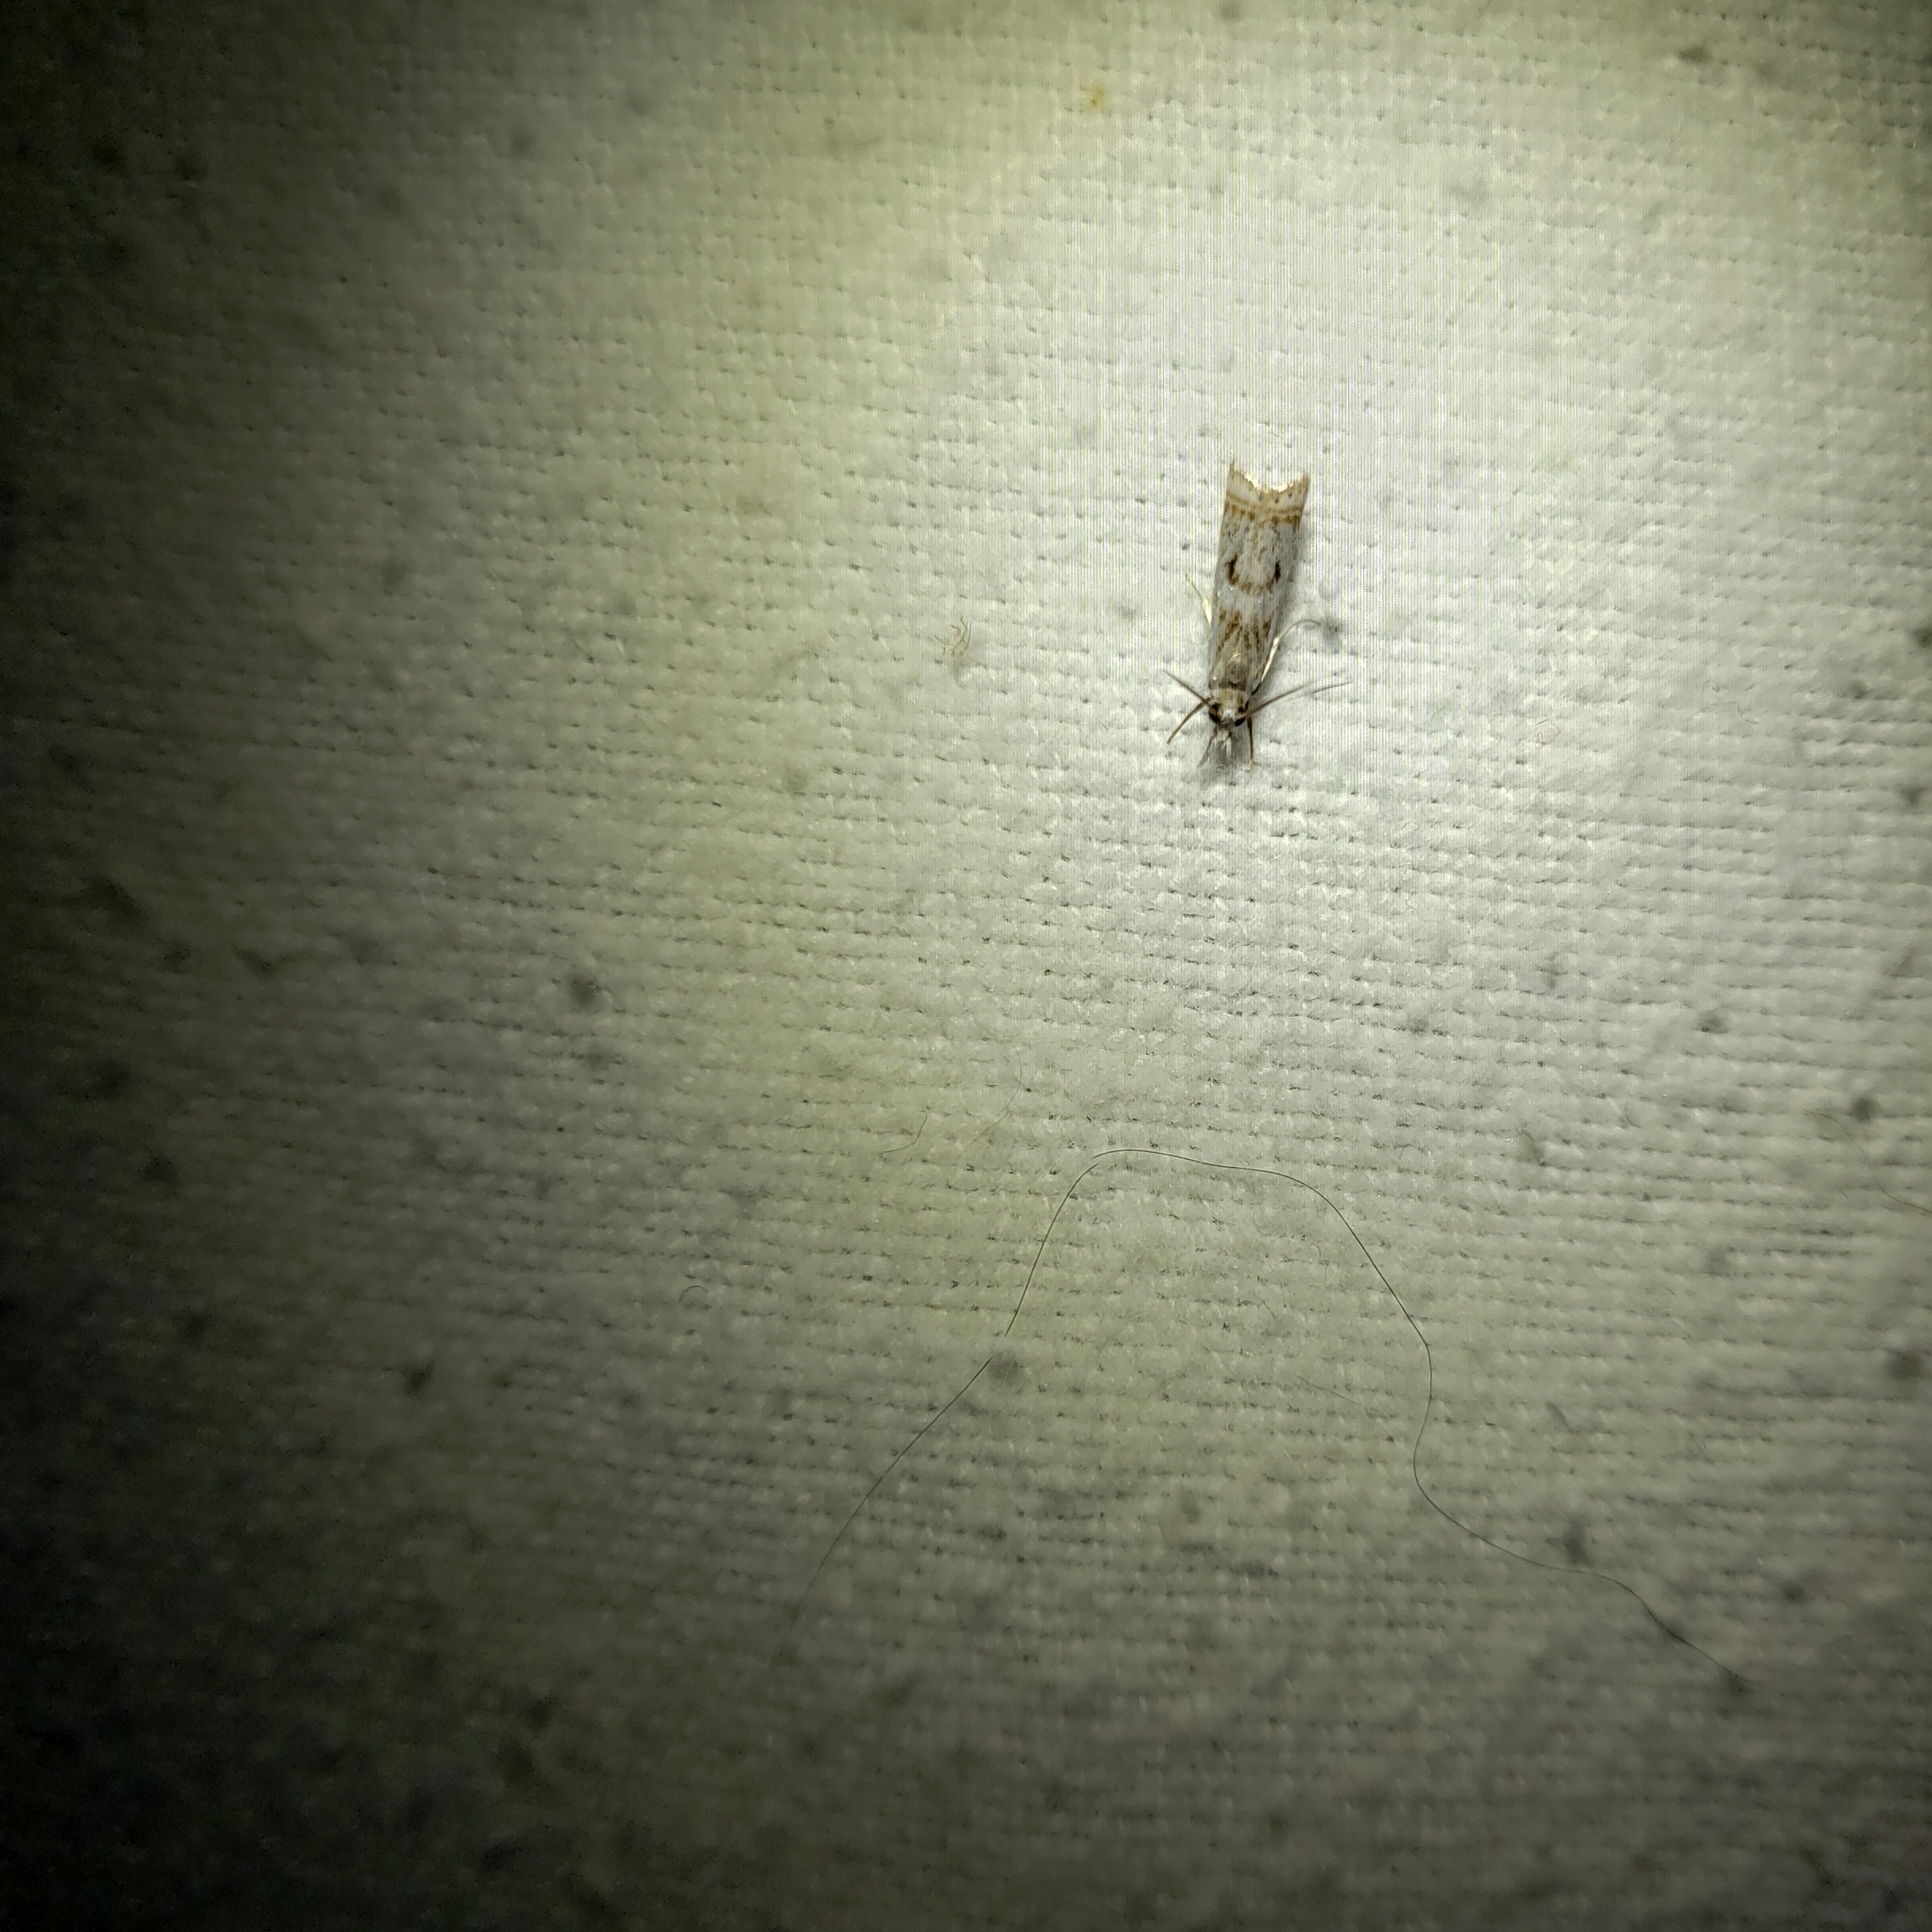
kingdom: Animalia
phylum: Arthropoda
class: Insecta
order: Lepidoptera
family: Crambidae
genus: Microcrambus
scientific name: Microcrambus elegans
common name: Elegant grass-veneer
